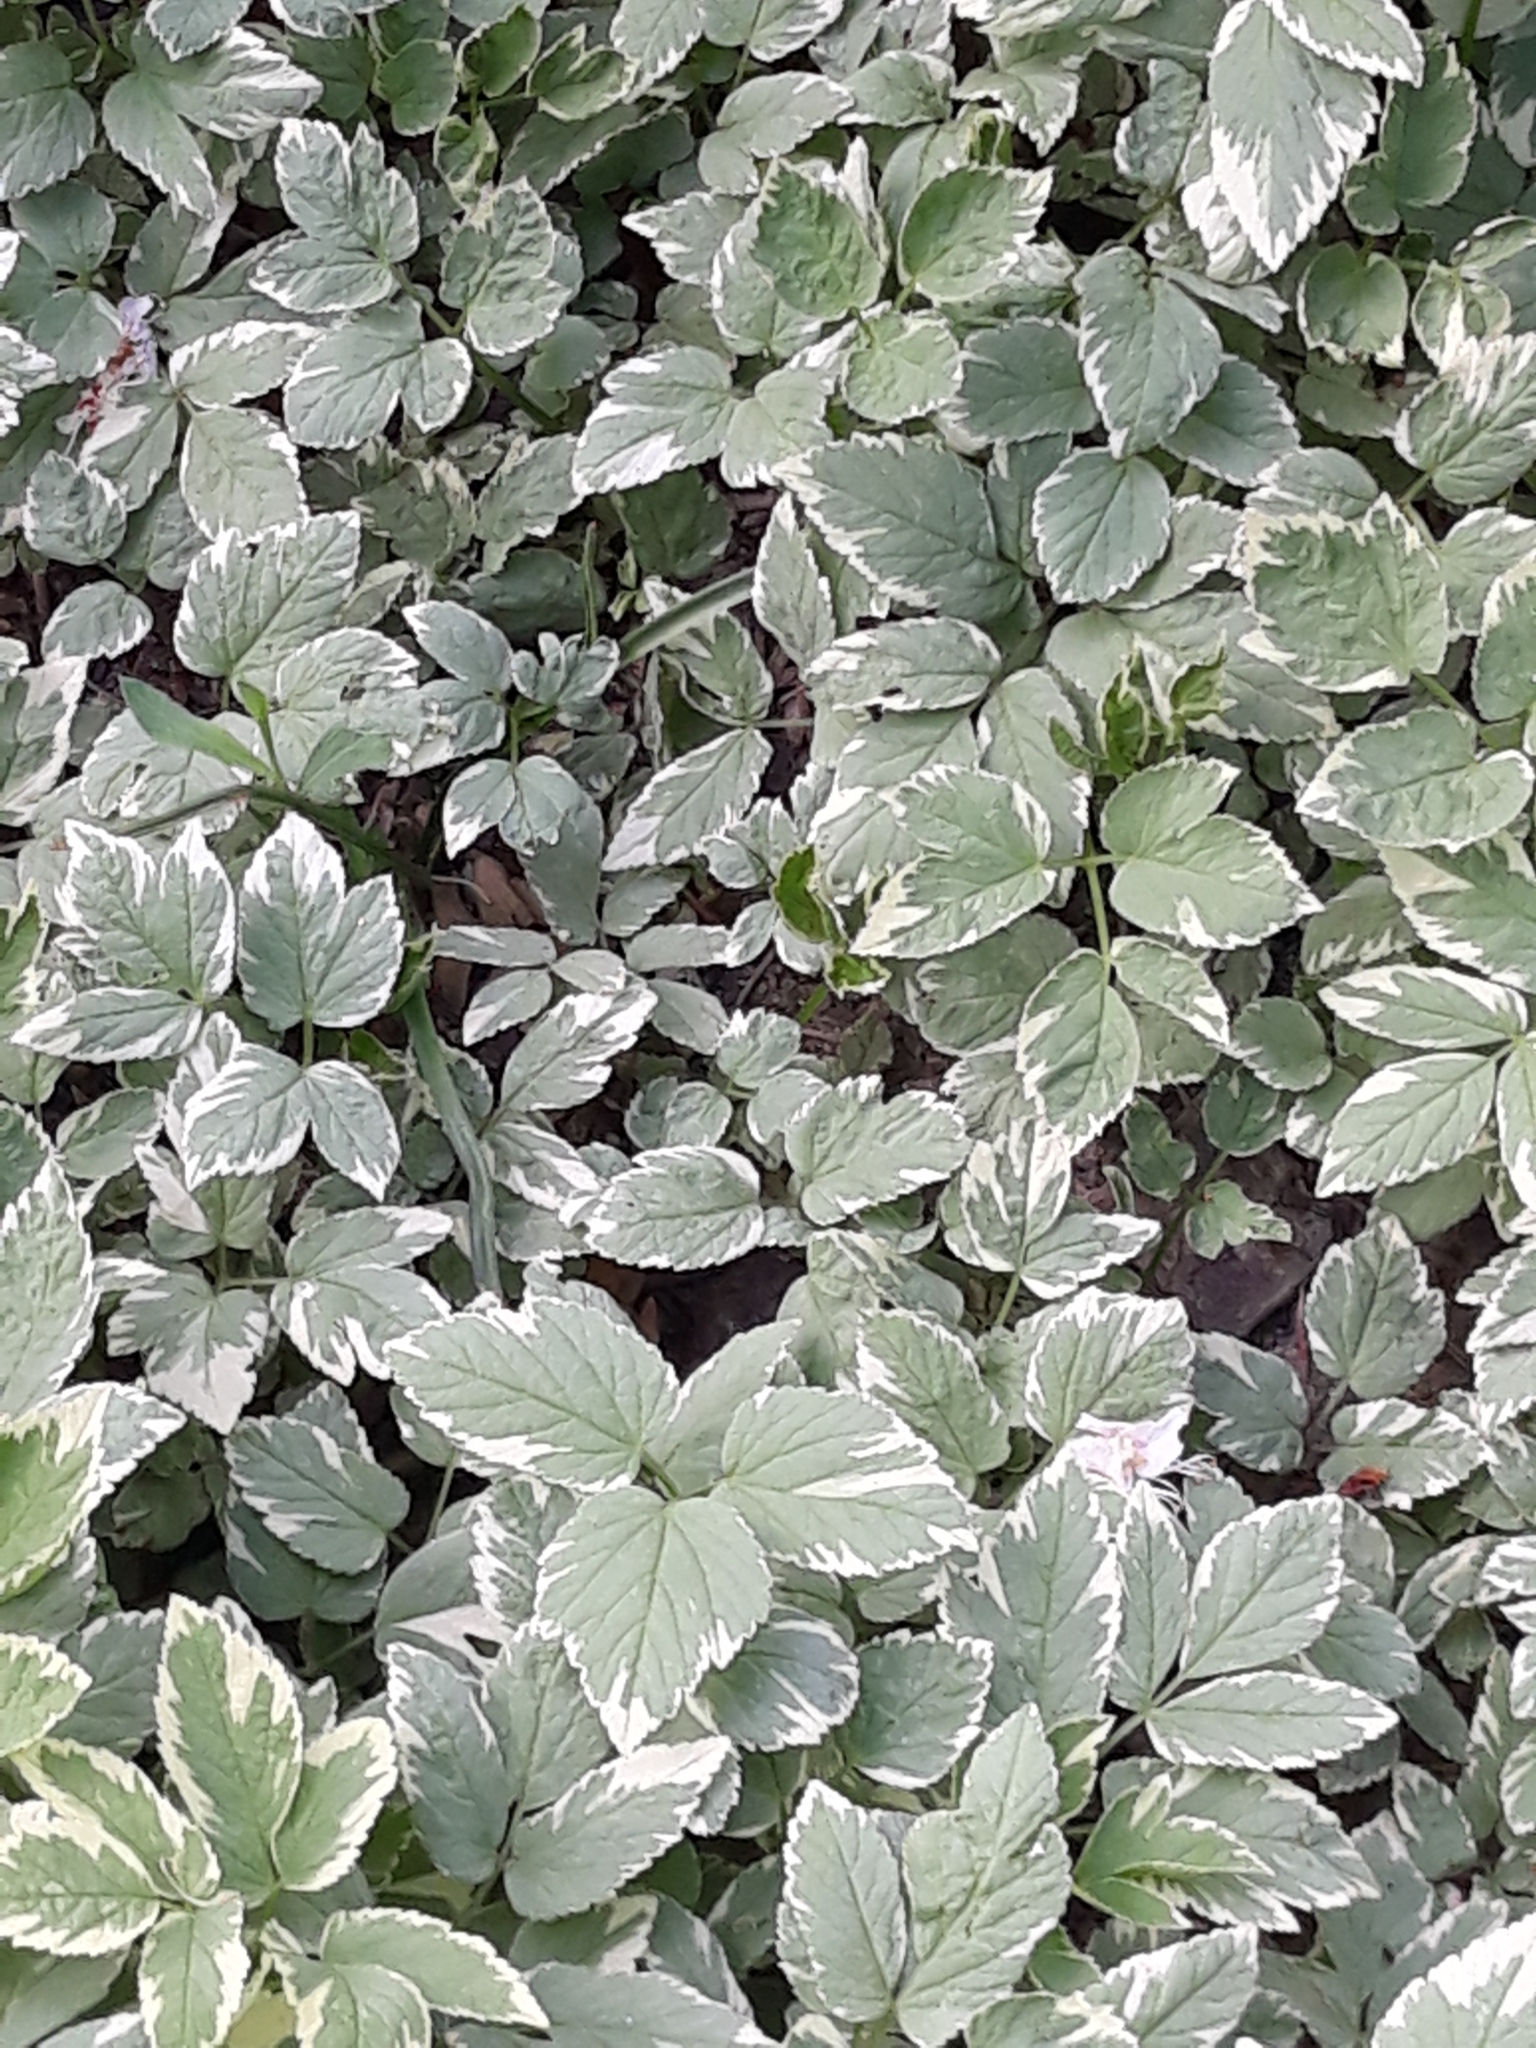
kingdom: Plantae
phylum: Tracheophyta
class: Magnoliopsida
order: Apiales
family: Apiaceae
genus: Aegopodium
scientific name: Aegopodium podagraria
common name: Ground-elder
